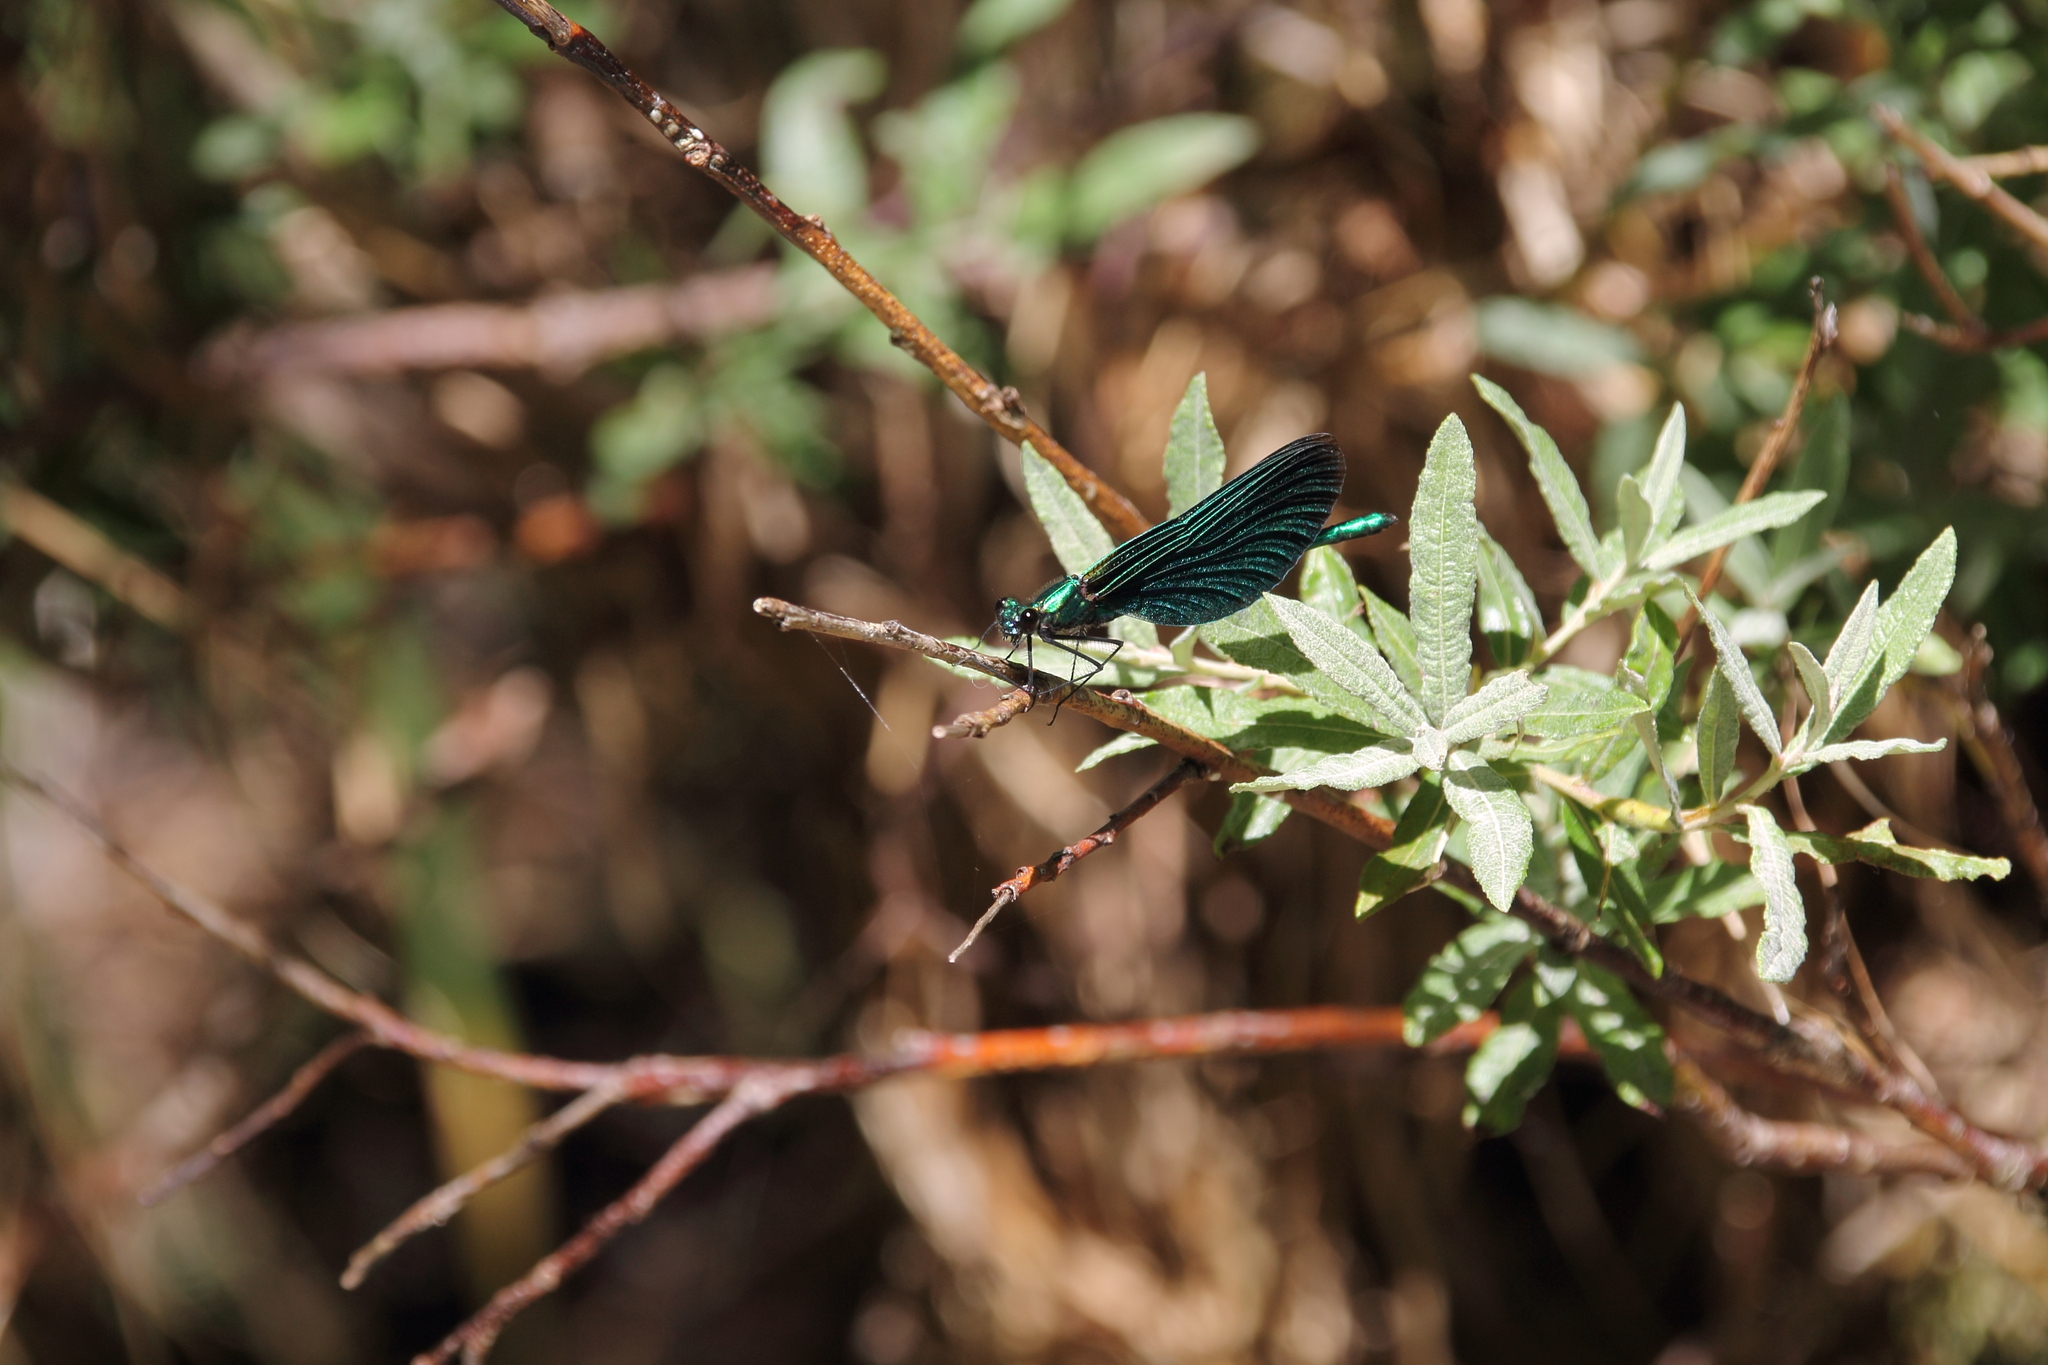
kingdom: Animalia
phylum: Arthropoda
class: Insecta
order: Odonata
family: Calopterygidae
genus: Calopteryx
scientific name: Calopteryx virgo
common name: Beautiful demoiselle
